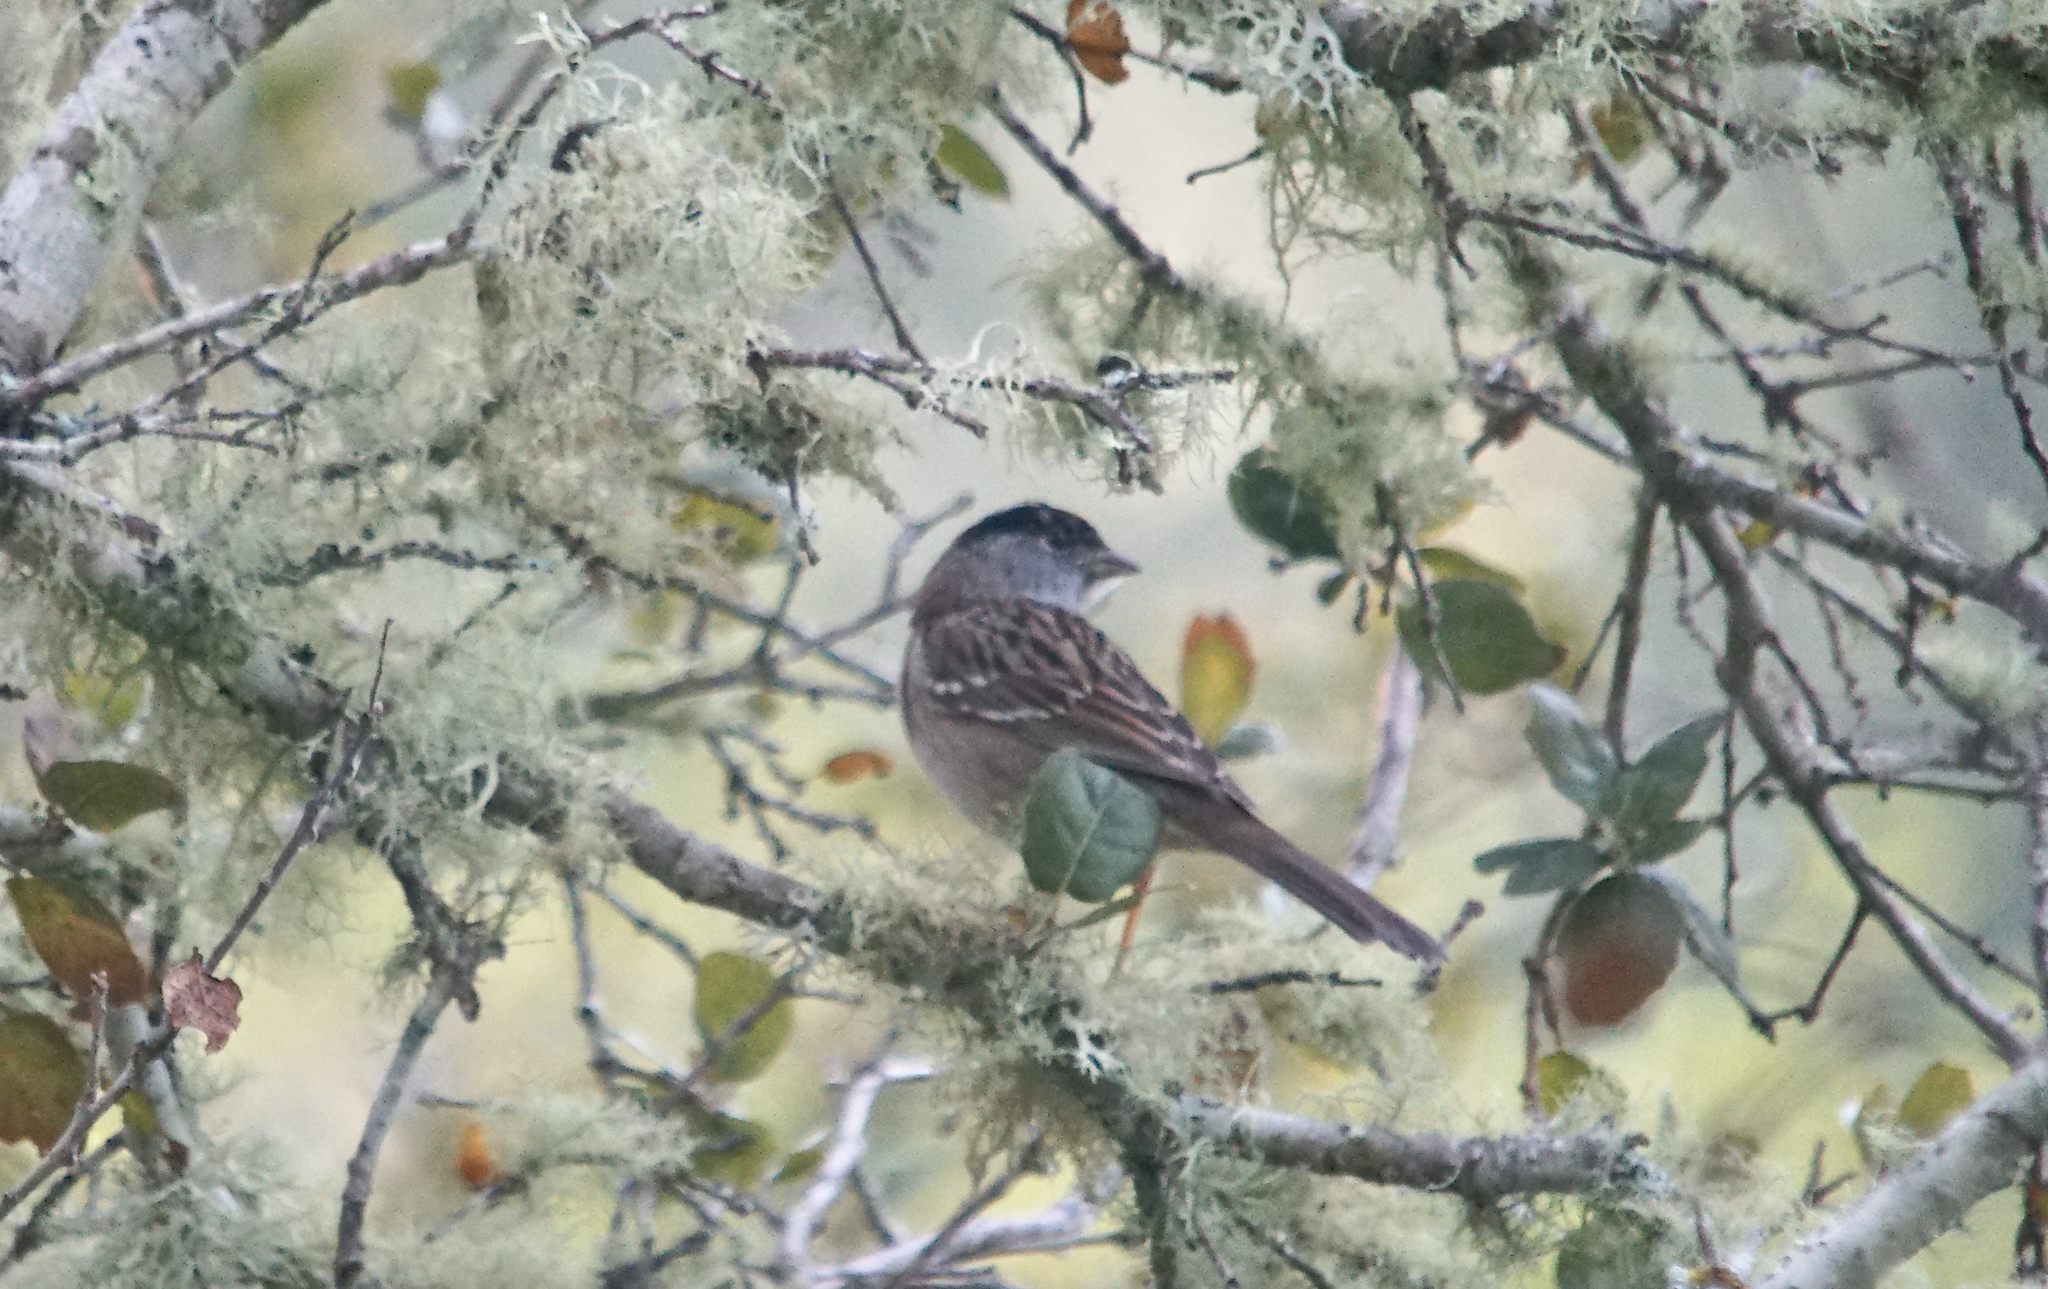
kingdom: Animalia
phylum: Chordata
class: Aves
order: Passeriformes
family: Passerellidae
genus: Zonotrichia
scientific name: Zonotrichia atricapilla
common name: Golden-crowned sparrow
